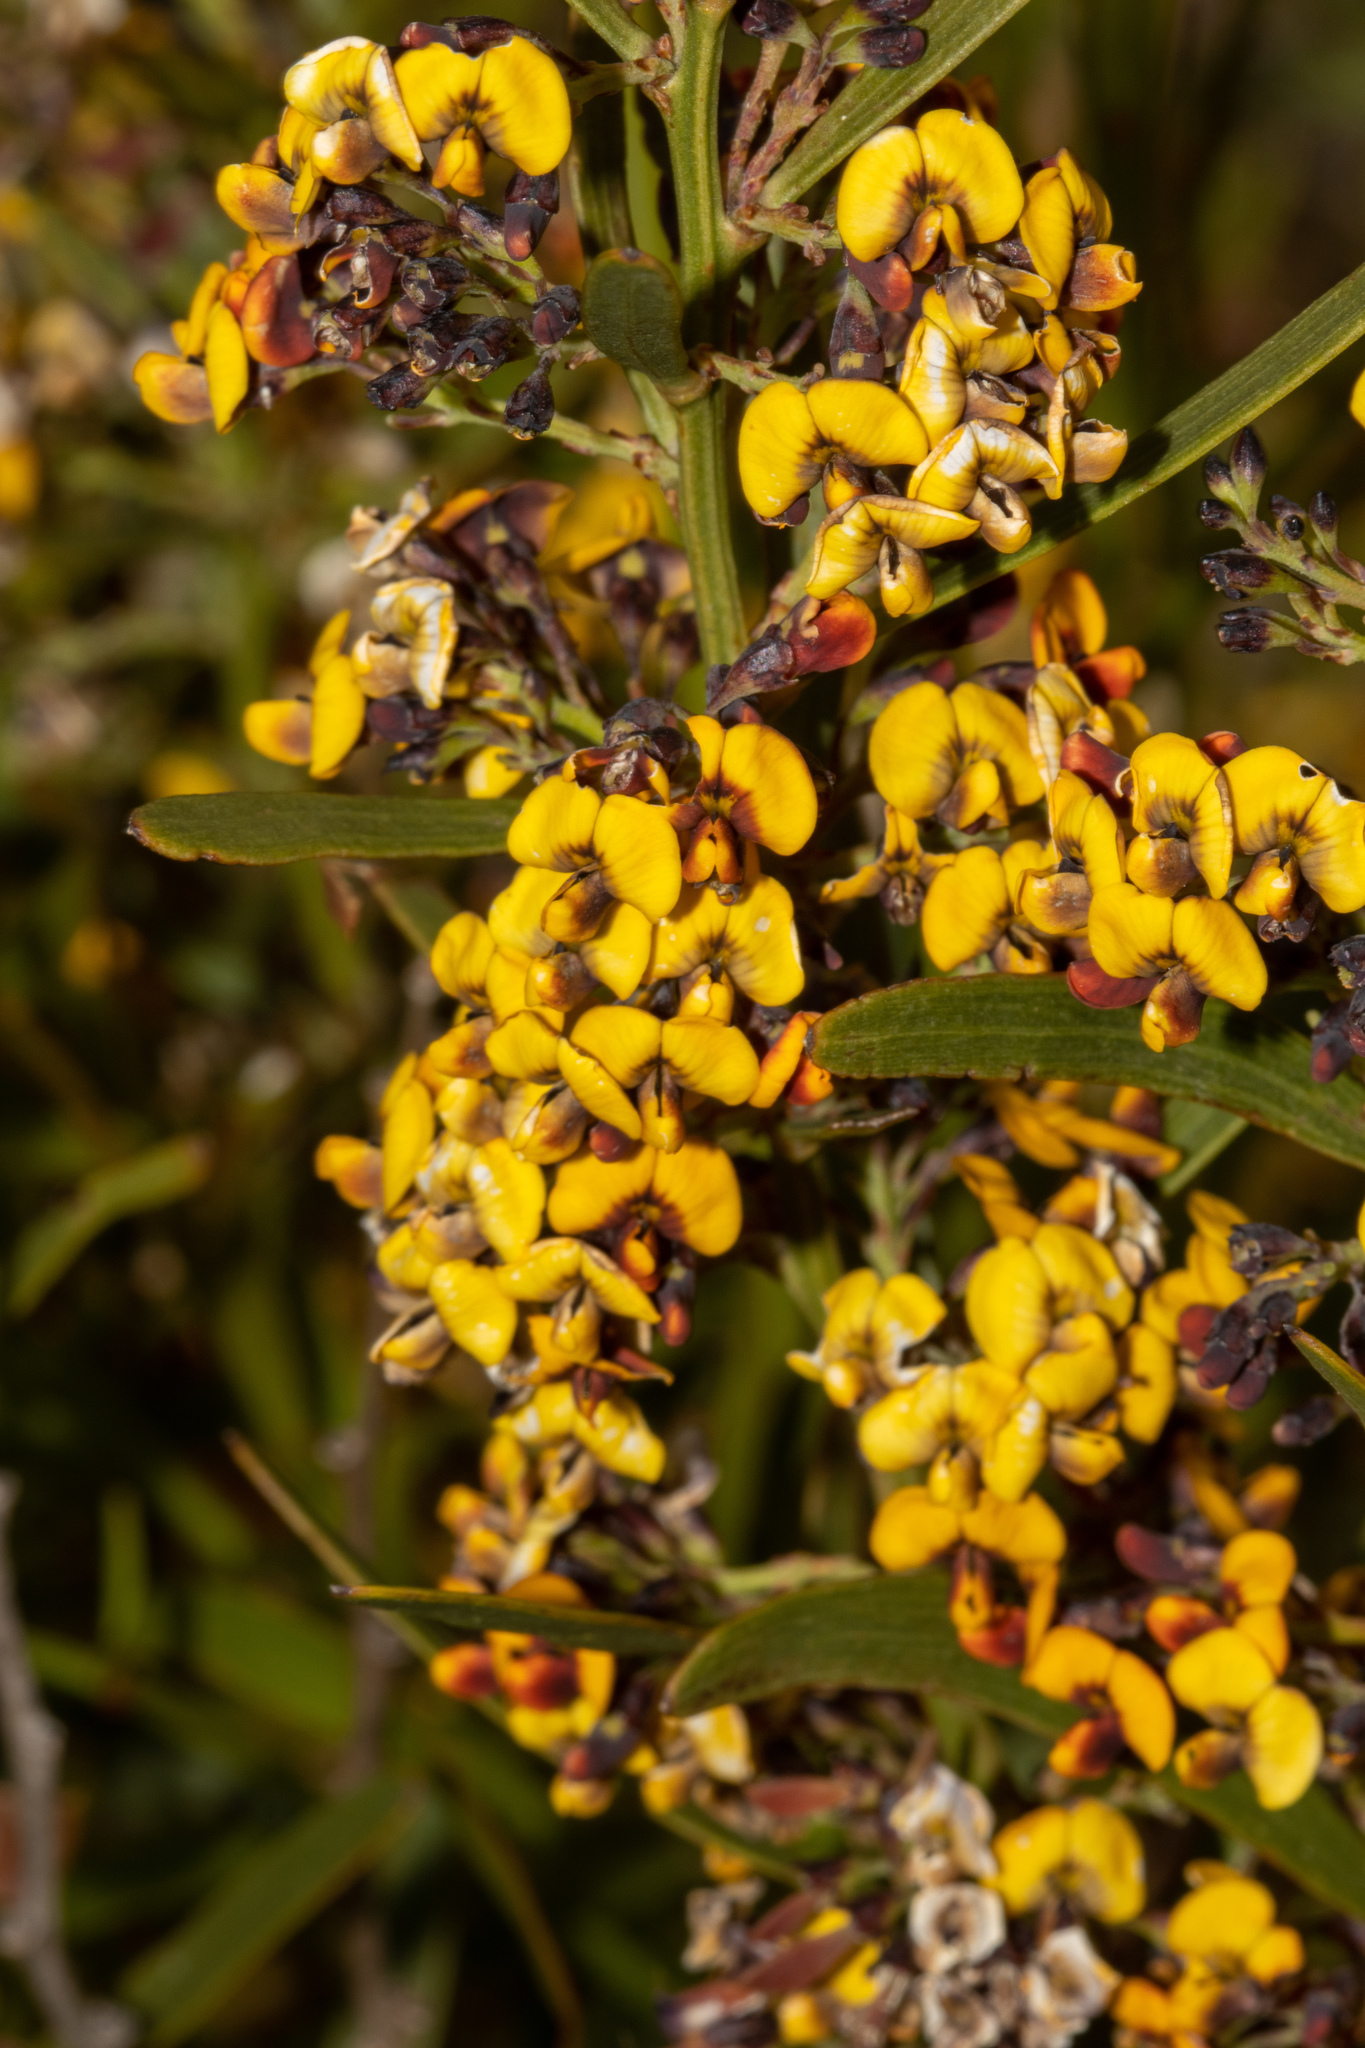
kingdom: Plantae
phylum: Tracheophyta
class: Magnoliopsida
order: Fabales
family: Fabaceae
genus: Daviesia
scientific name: Daviesia leptophylla
